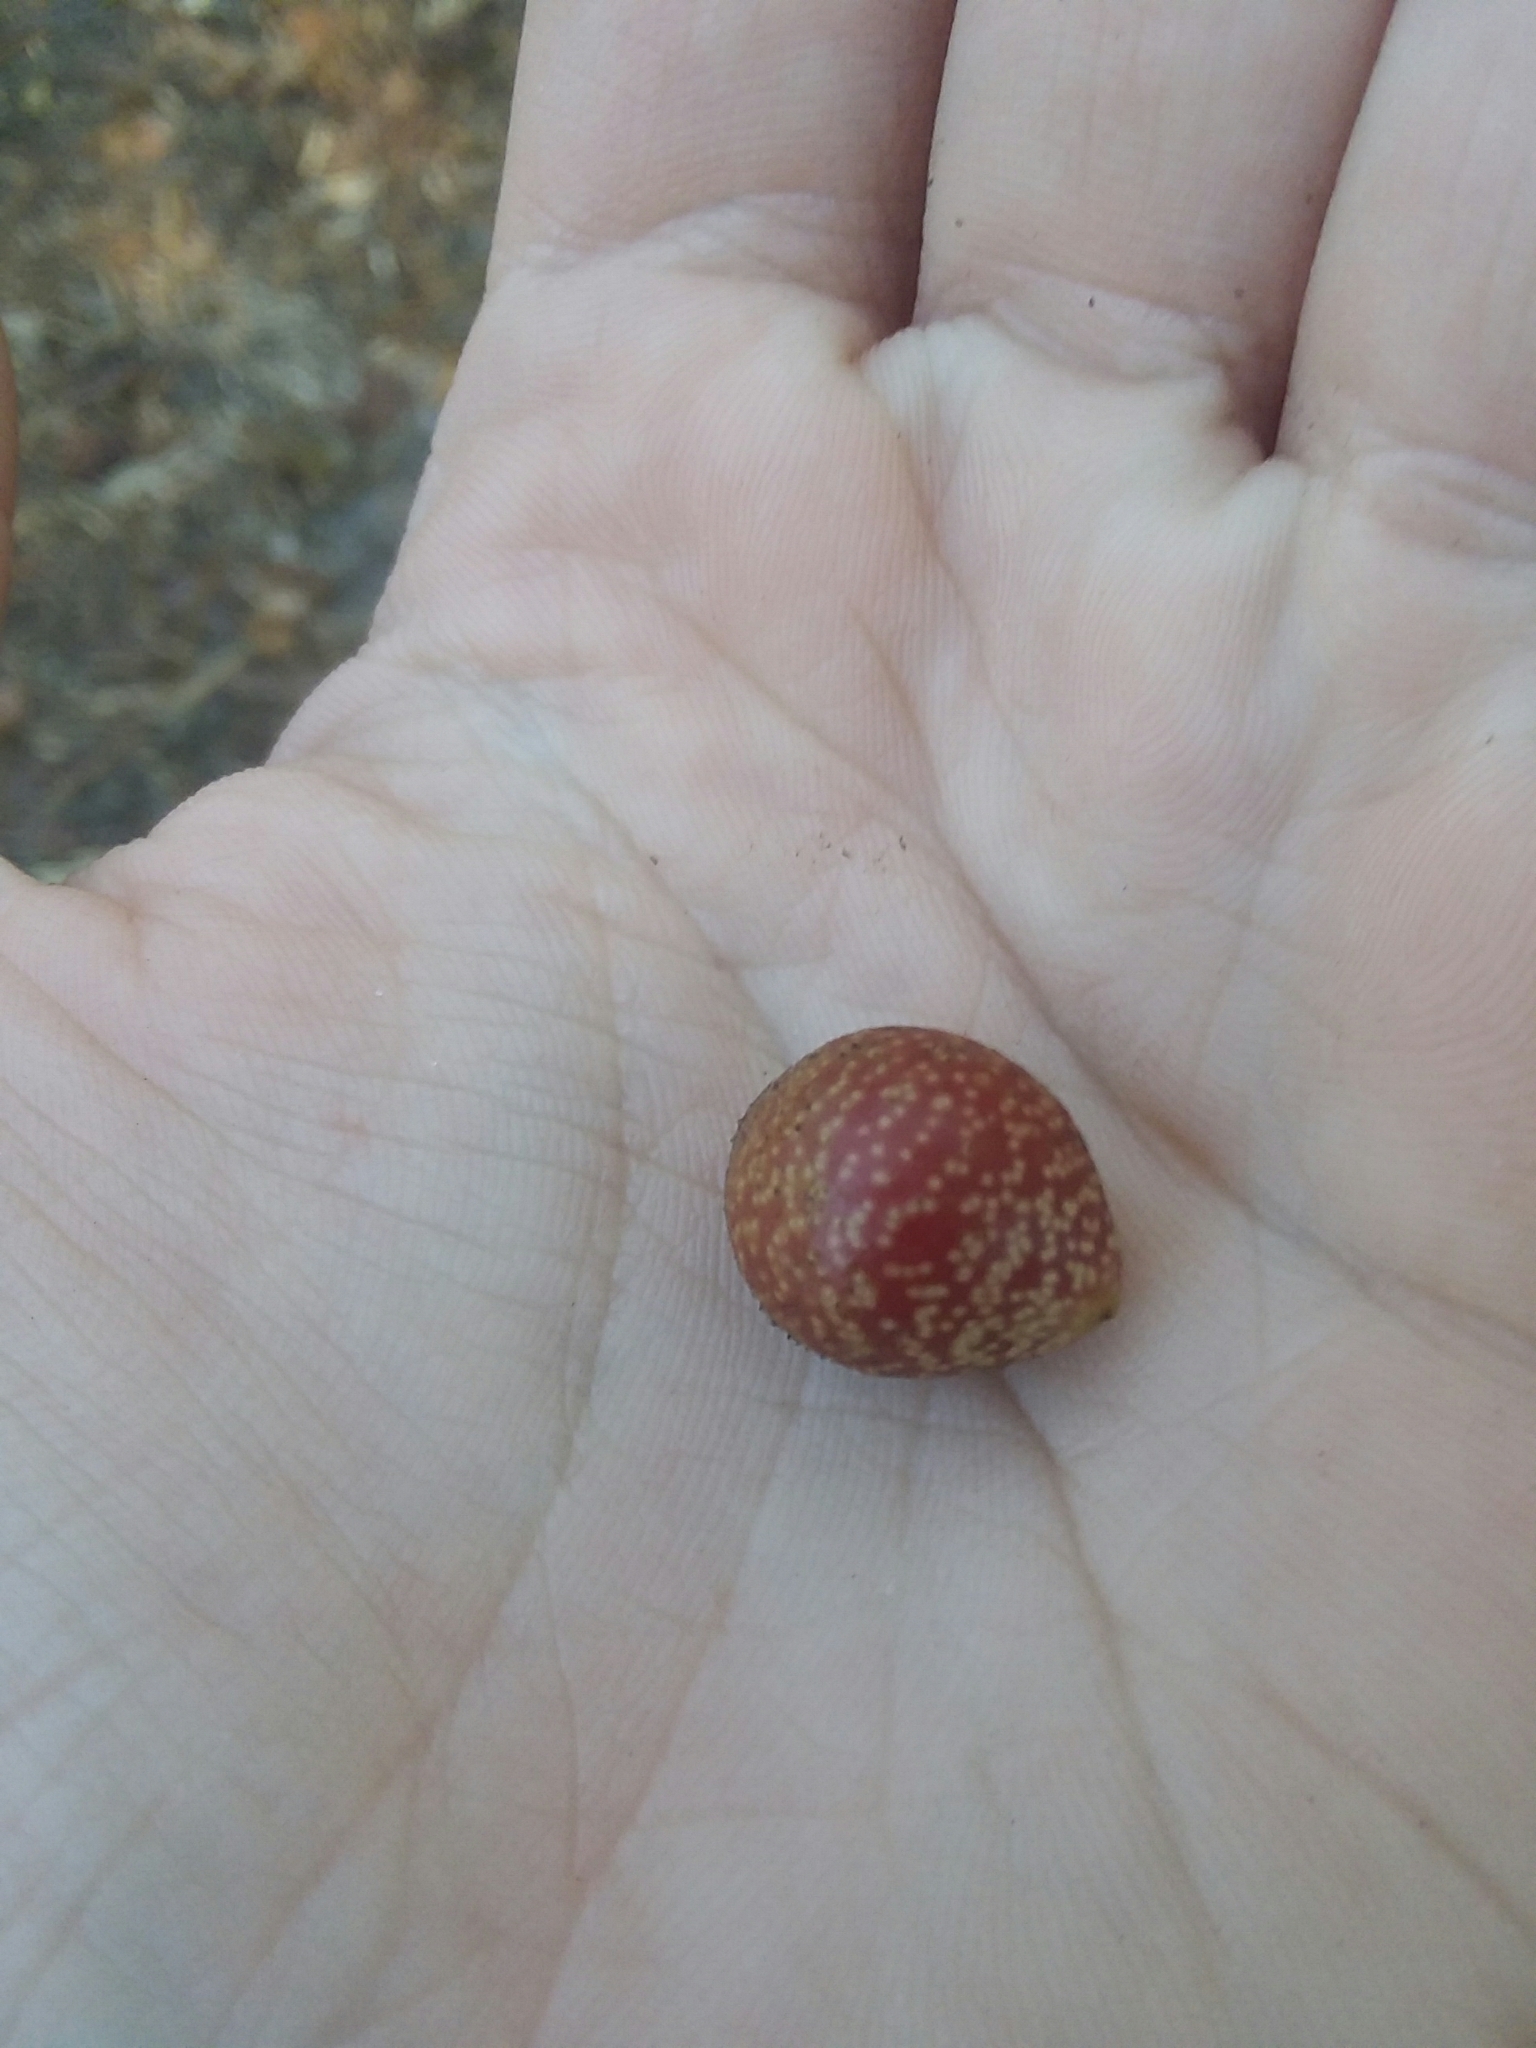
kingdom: Animalia
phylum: Arthropoda
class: Insecta
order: Hymenoptera
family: Cynipidae
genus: Kokkocynips
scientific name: Kokkocynips imbricariae
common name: Banded bullet gall wasp
